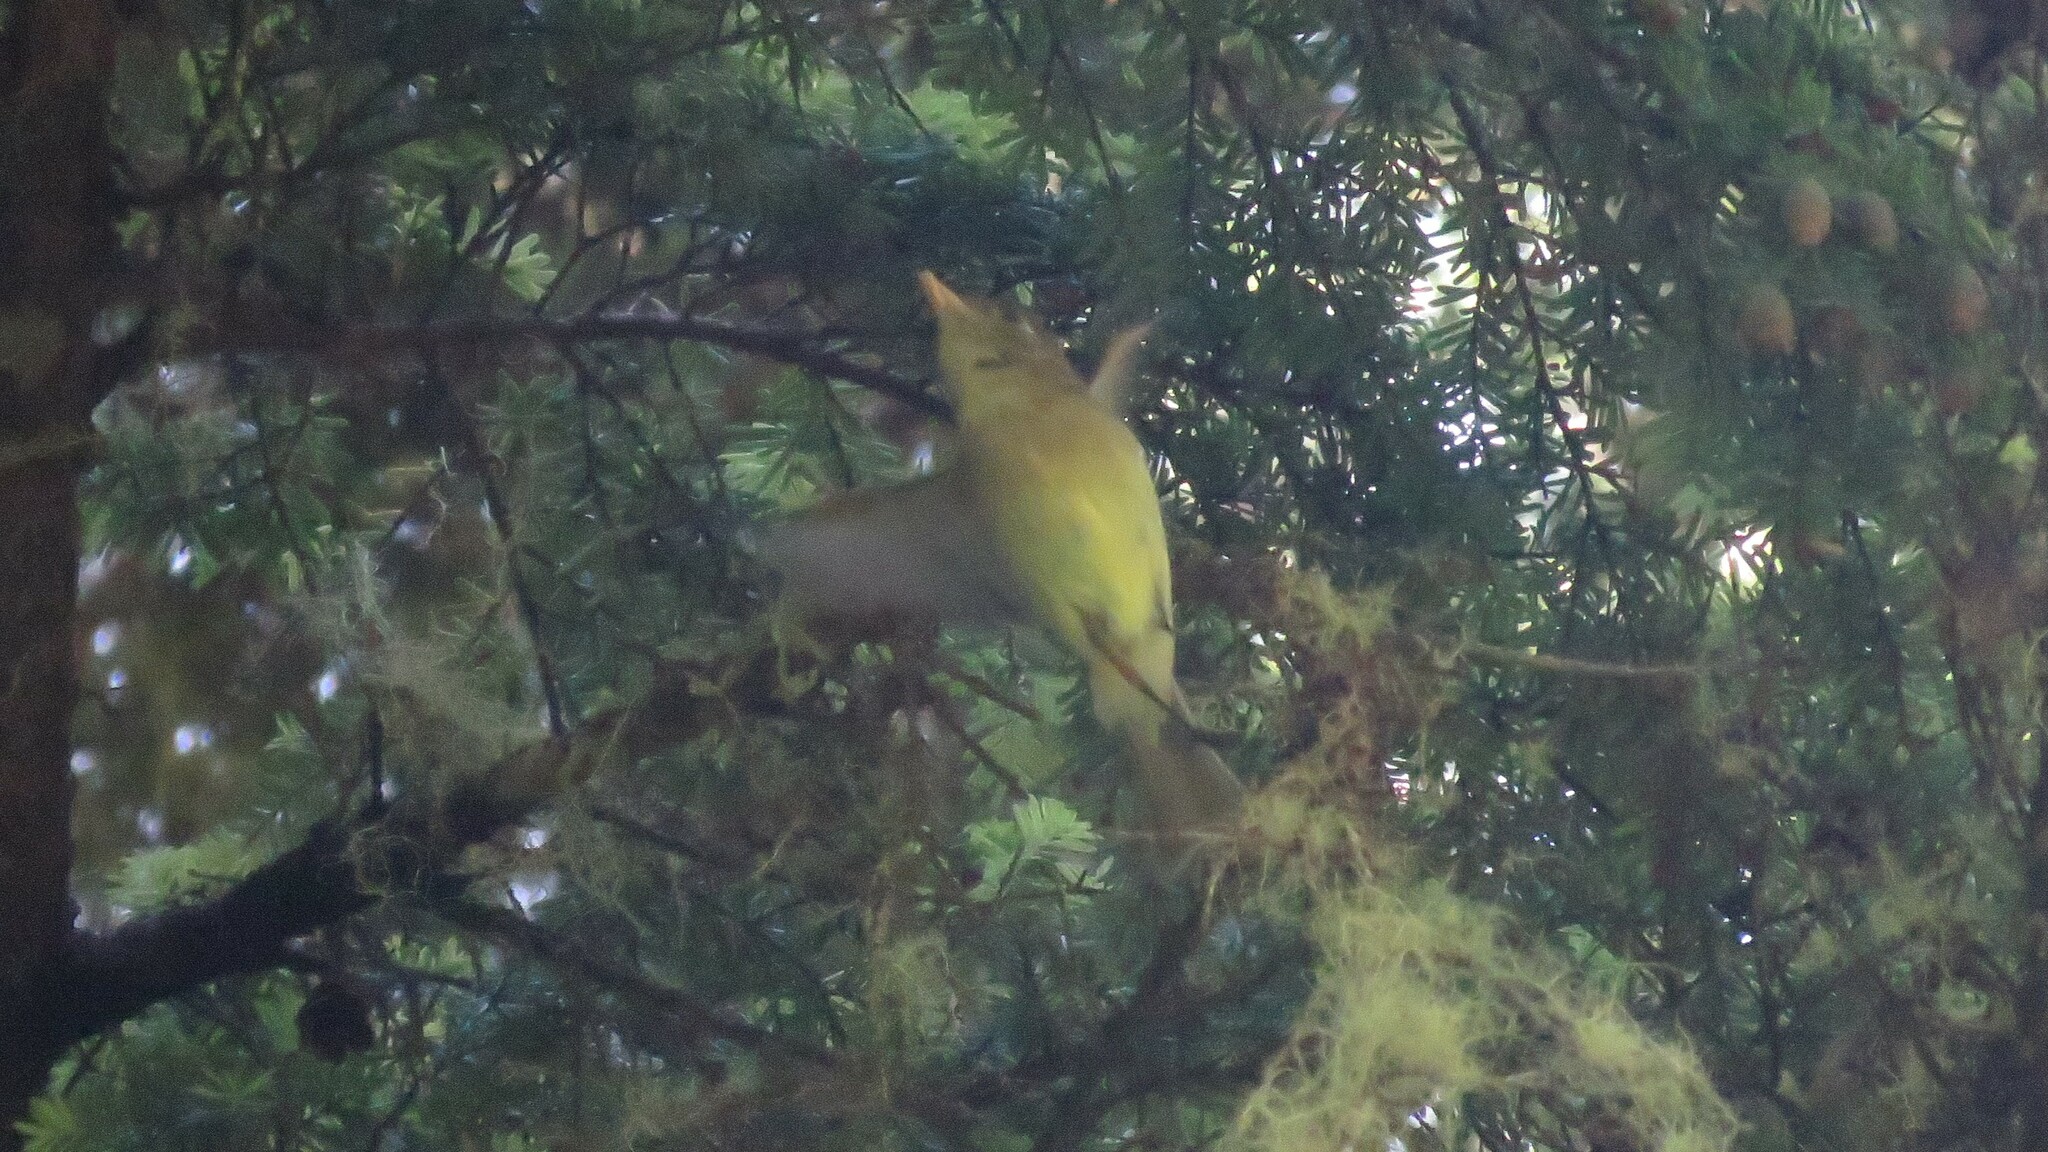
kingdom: Animalia
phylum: Chordata
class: Aves
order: Passeriformes
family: Tyrannidae
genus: Empidonax
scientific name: Empidonax difficilis
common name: Pacific-slope flycatcher
